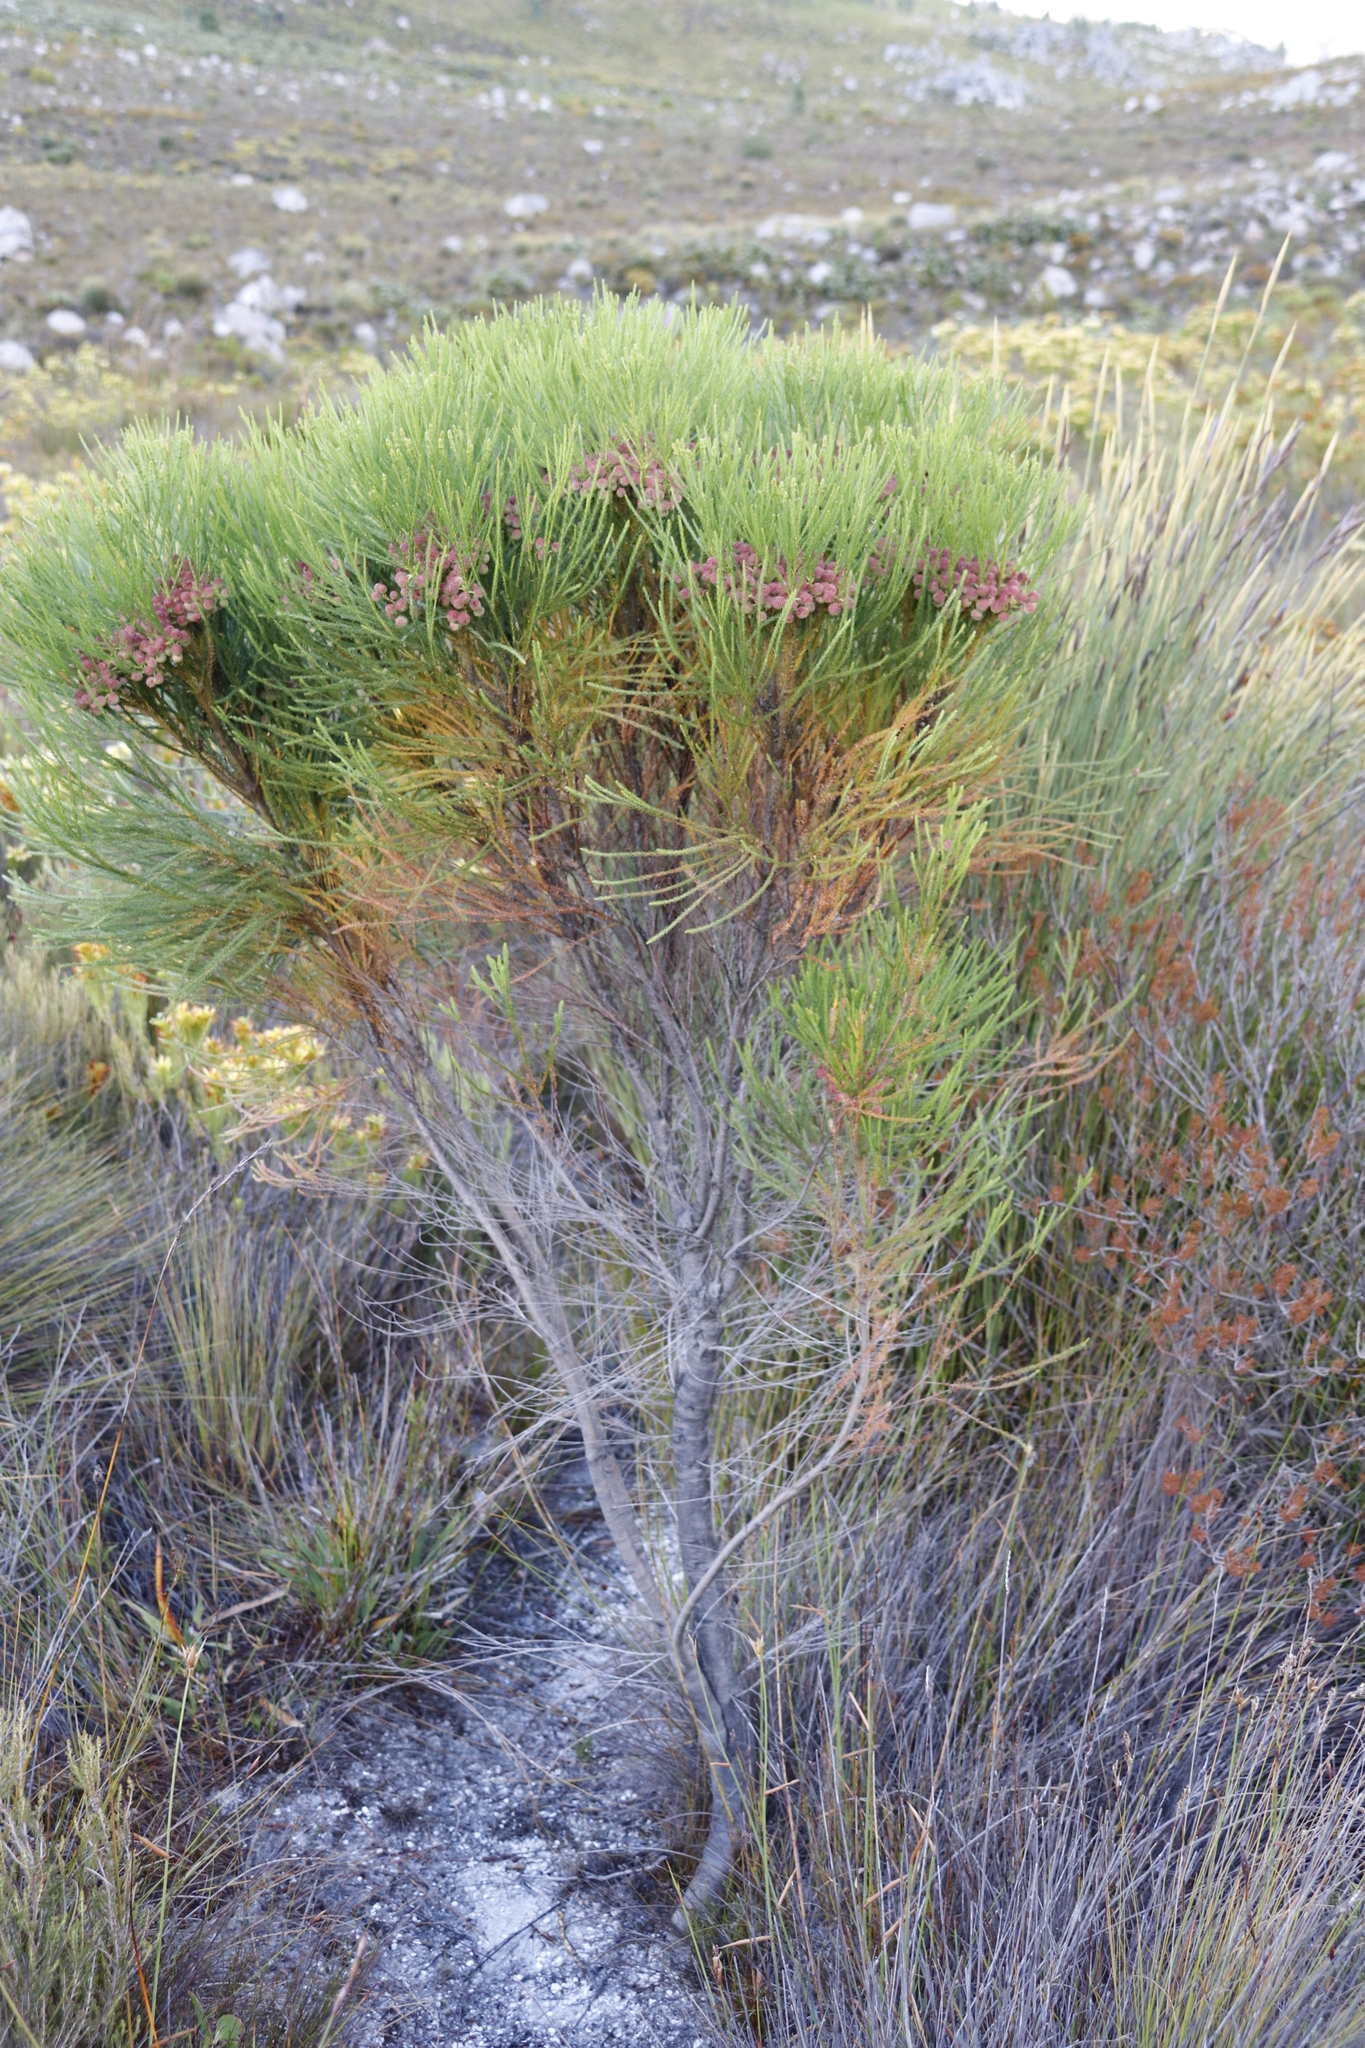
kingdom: Plantae
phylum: Tracheophyta
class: Magnoliopsida
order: Bruniales
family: Bruniaceae
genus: Berzelia
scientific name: Berzelia lanuginosa
